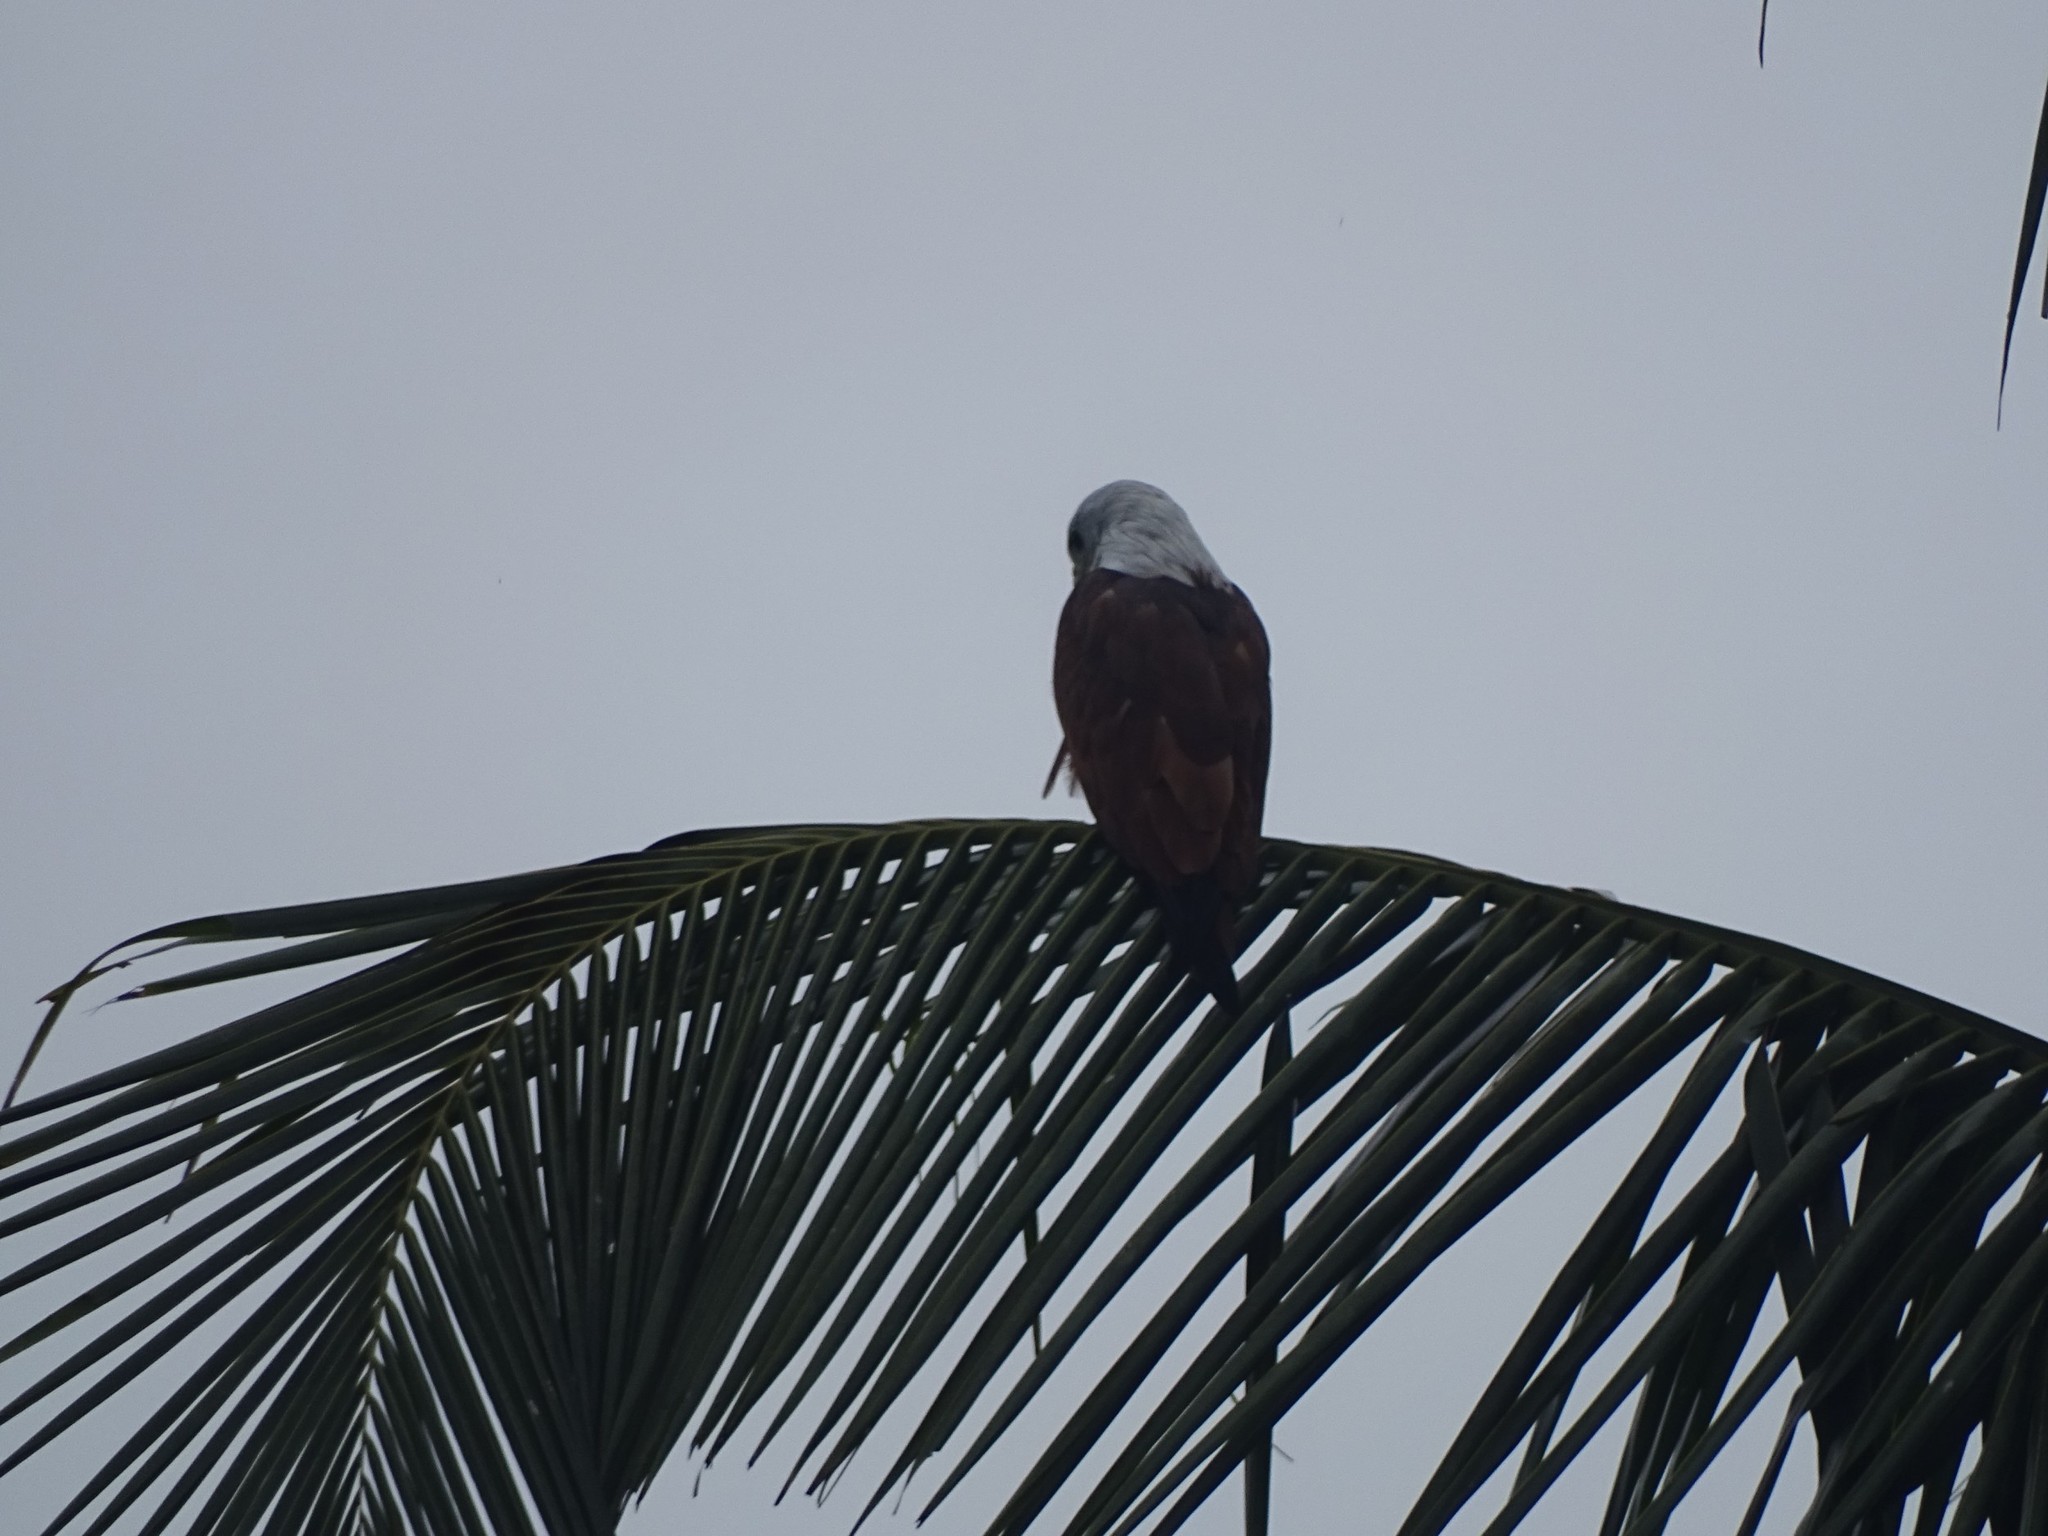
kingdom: Animalia
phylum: Chordata
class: Aves
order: Accipitriformes
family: Accipitridae
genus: Haliastur
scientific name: Haliastur indus
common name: Brahminy kite
